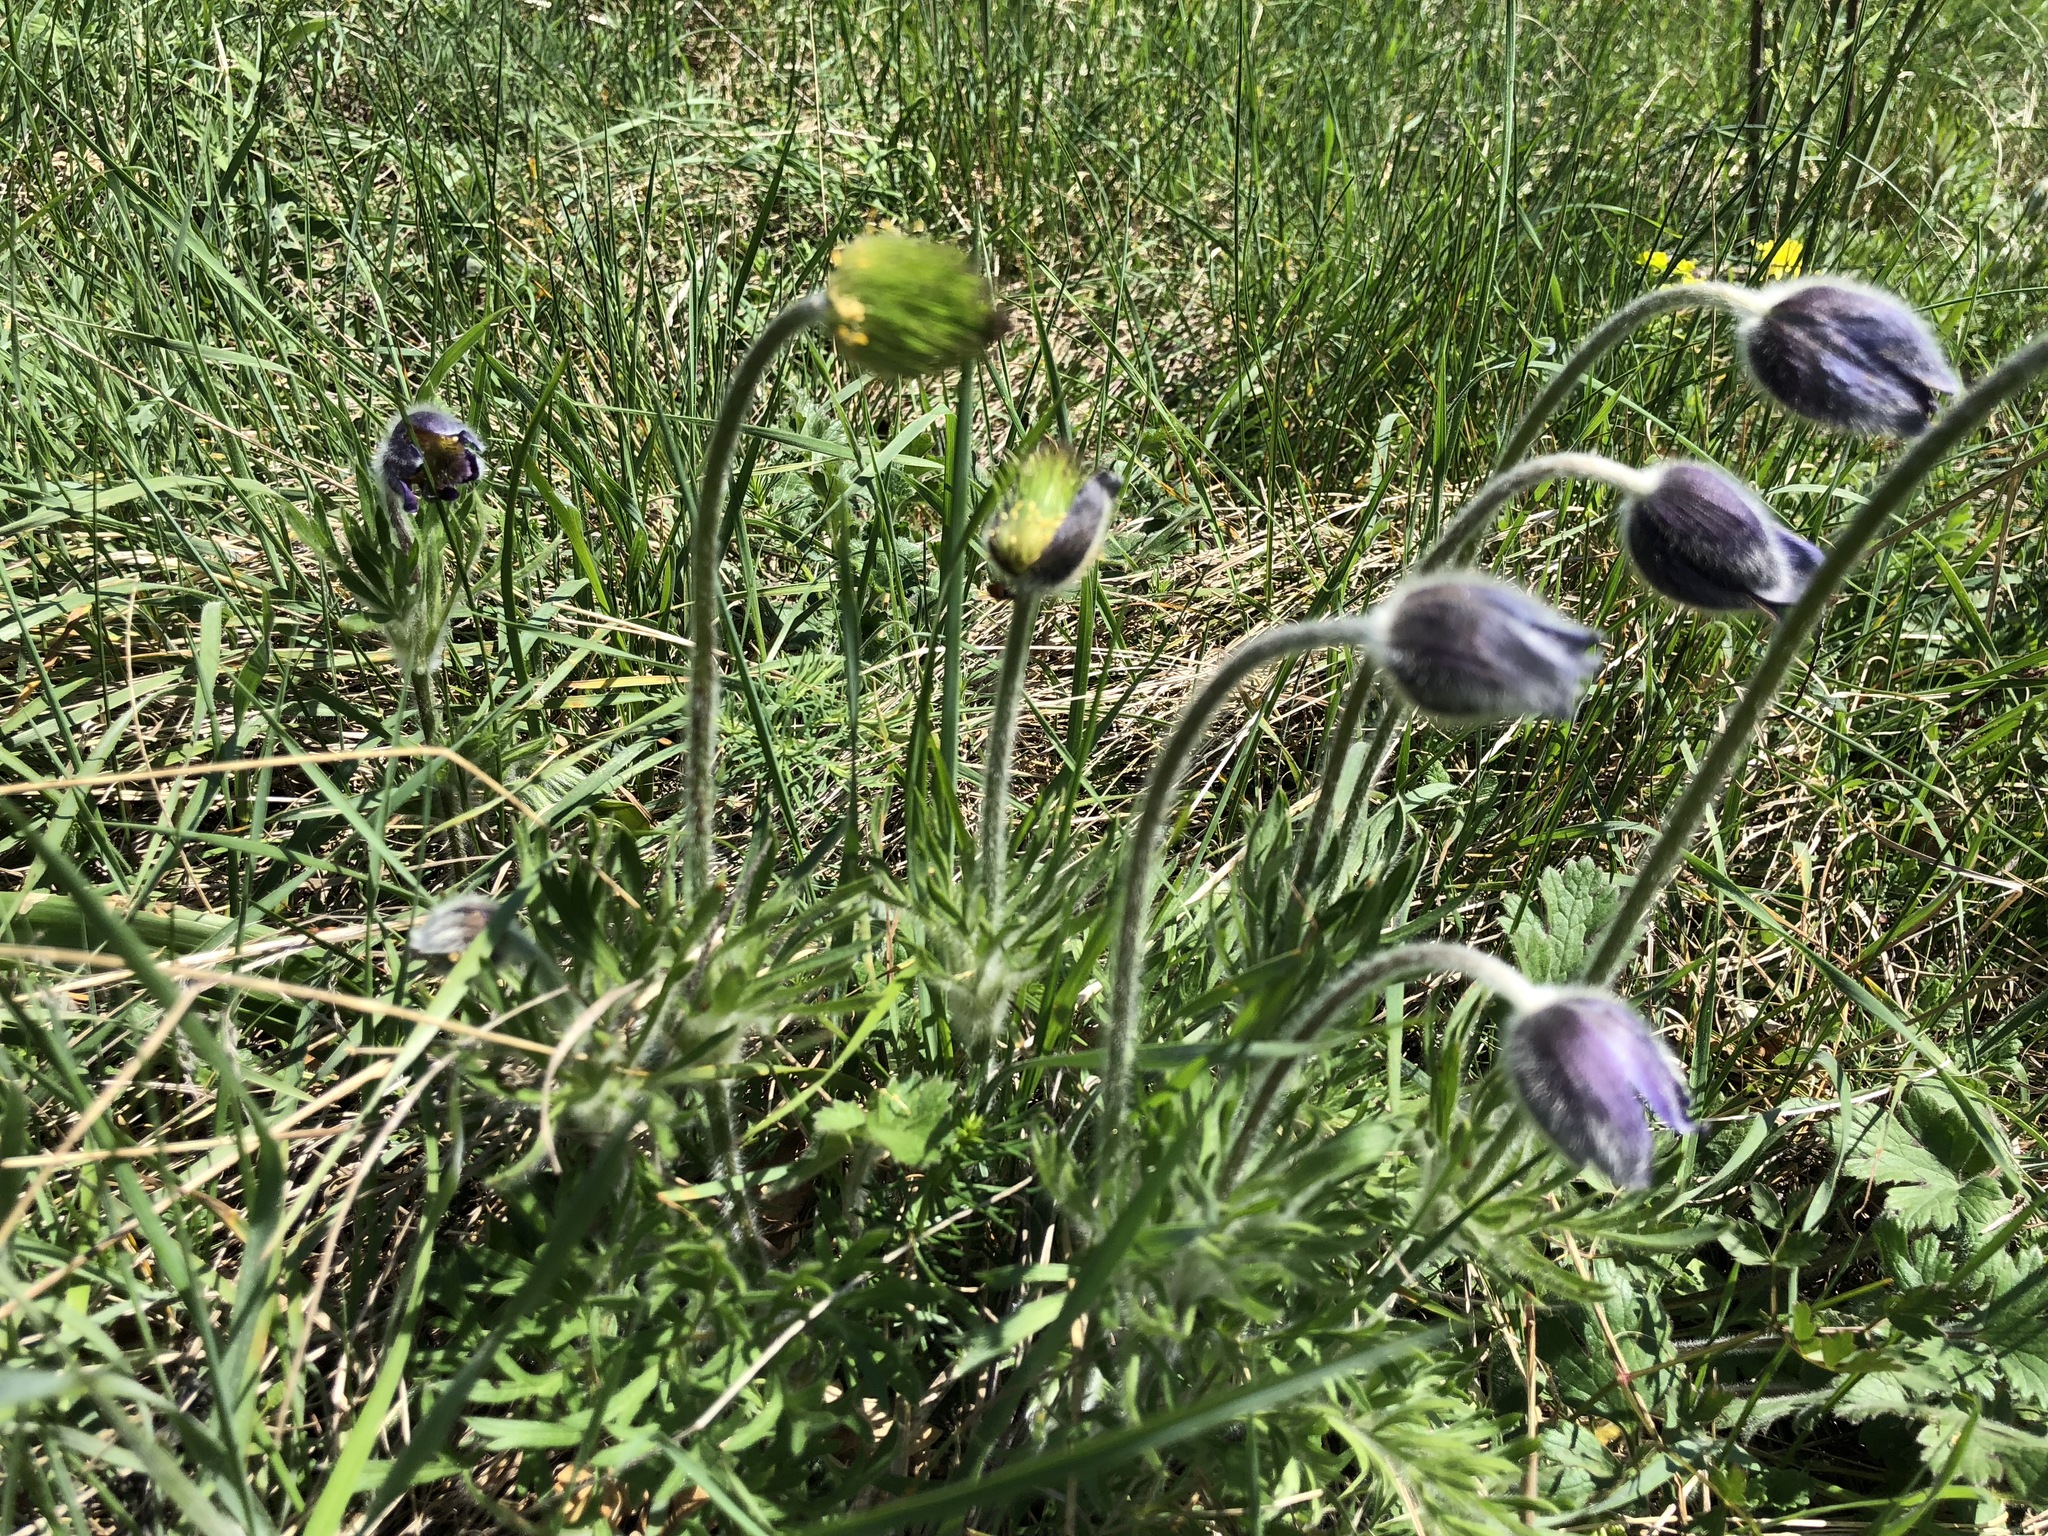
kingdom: Plantae
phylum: Tracheophyta
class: Magnoliopsida
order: Ranunculales
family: Ranunculaceae
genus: Pulsatilla
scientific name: Pulsatilla montana
